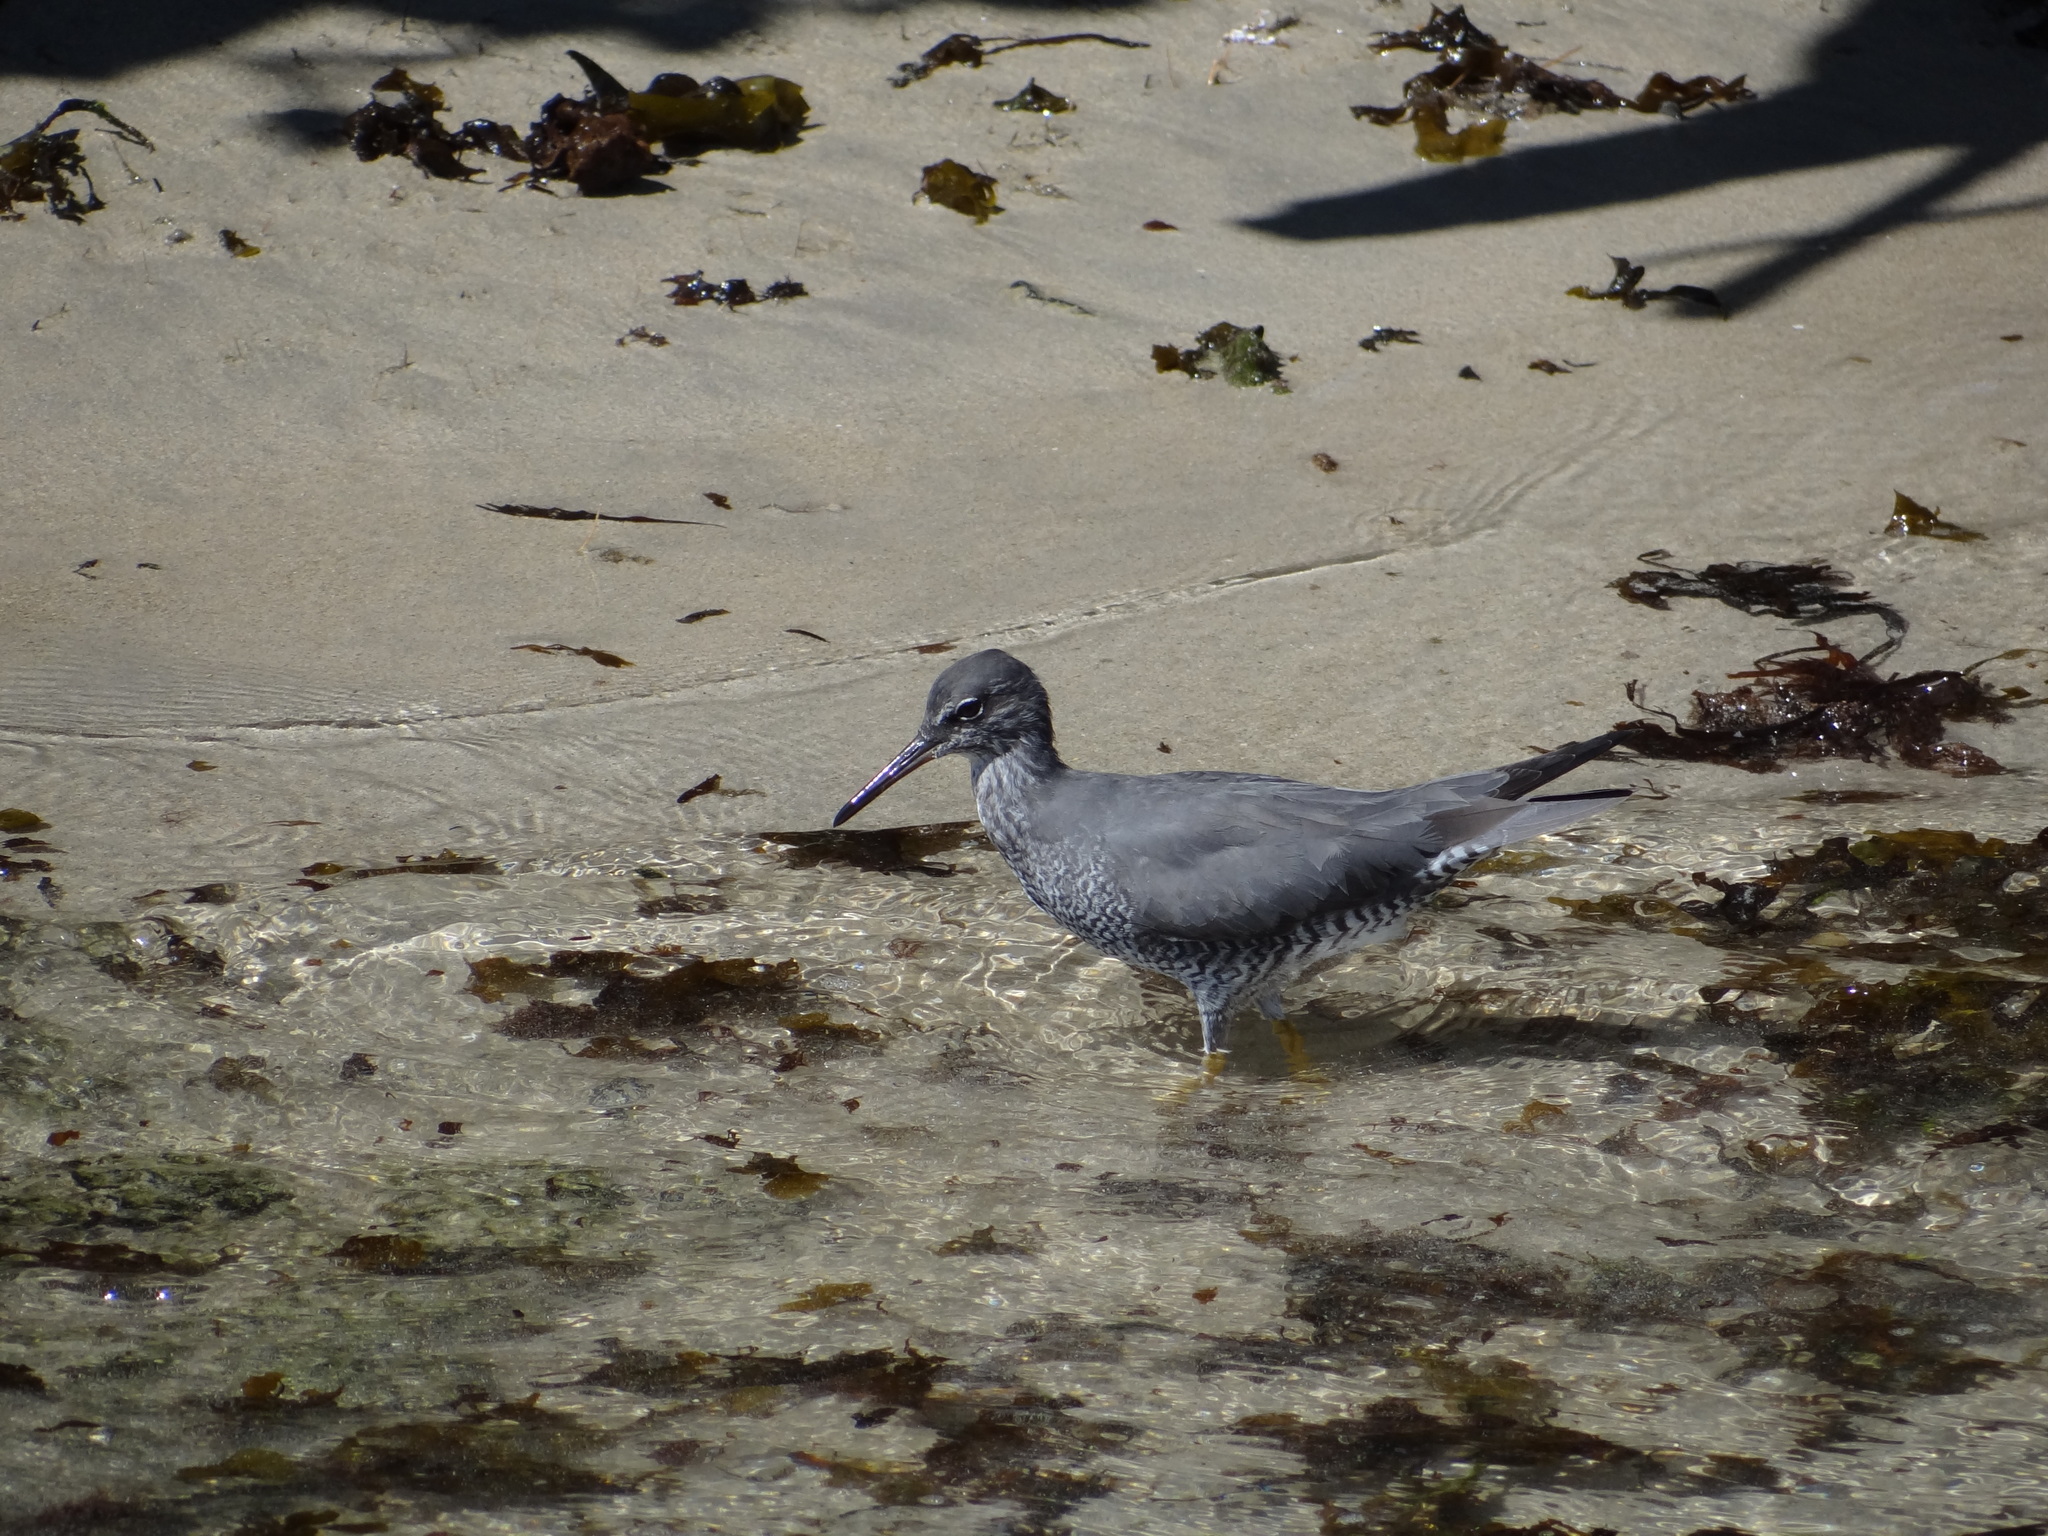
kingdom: Animalia
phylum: Chordata
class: Aves
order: Charadriiformes
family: Scolopacidae
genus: Tringa
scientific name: Tringa incana
